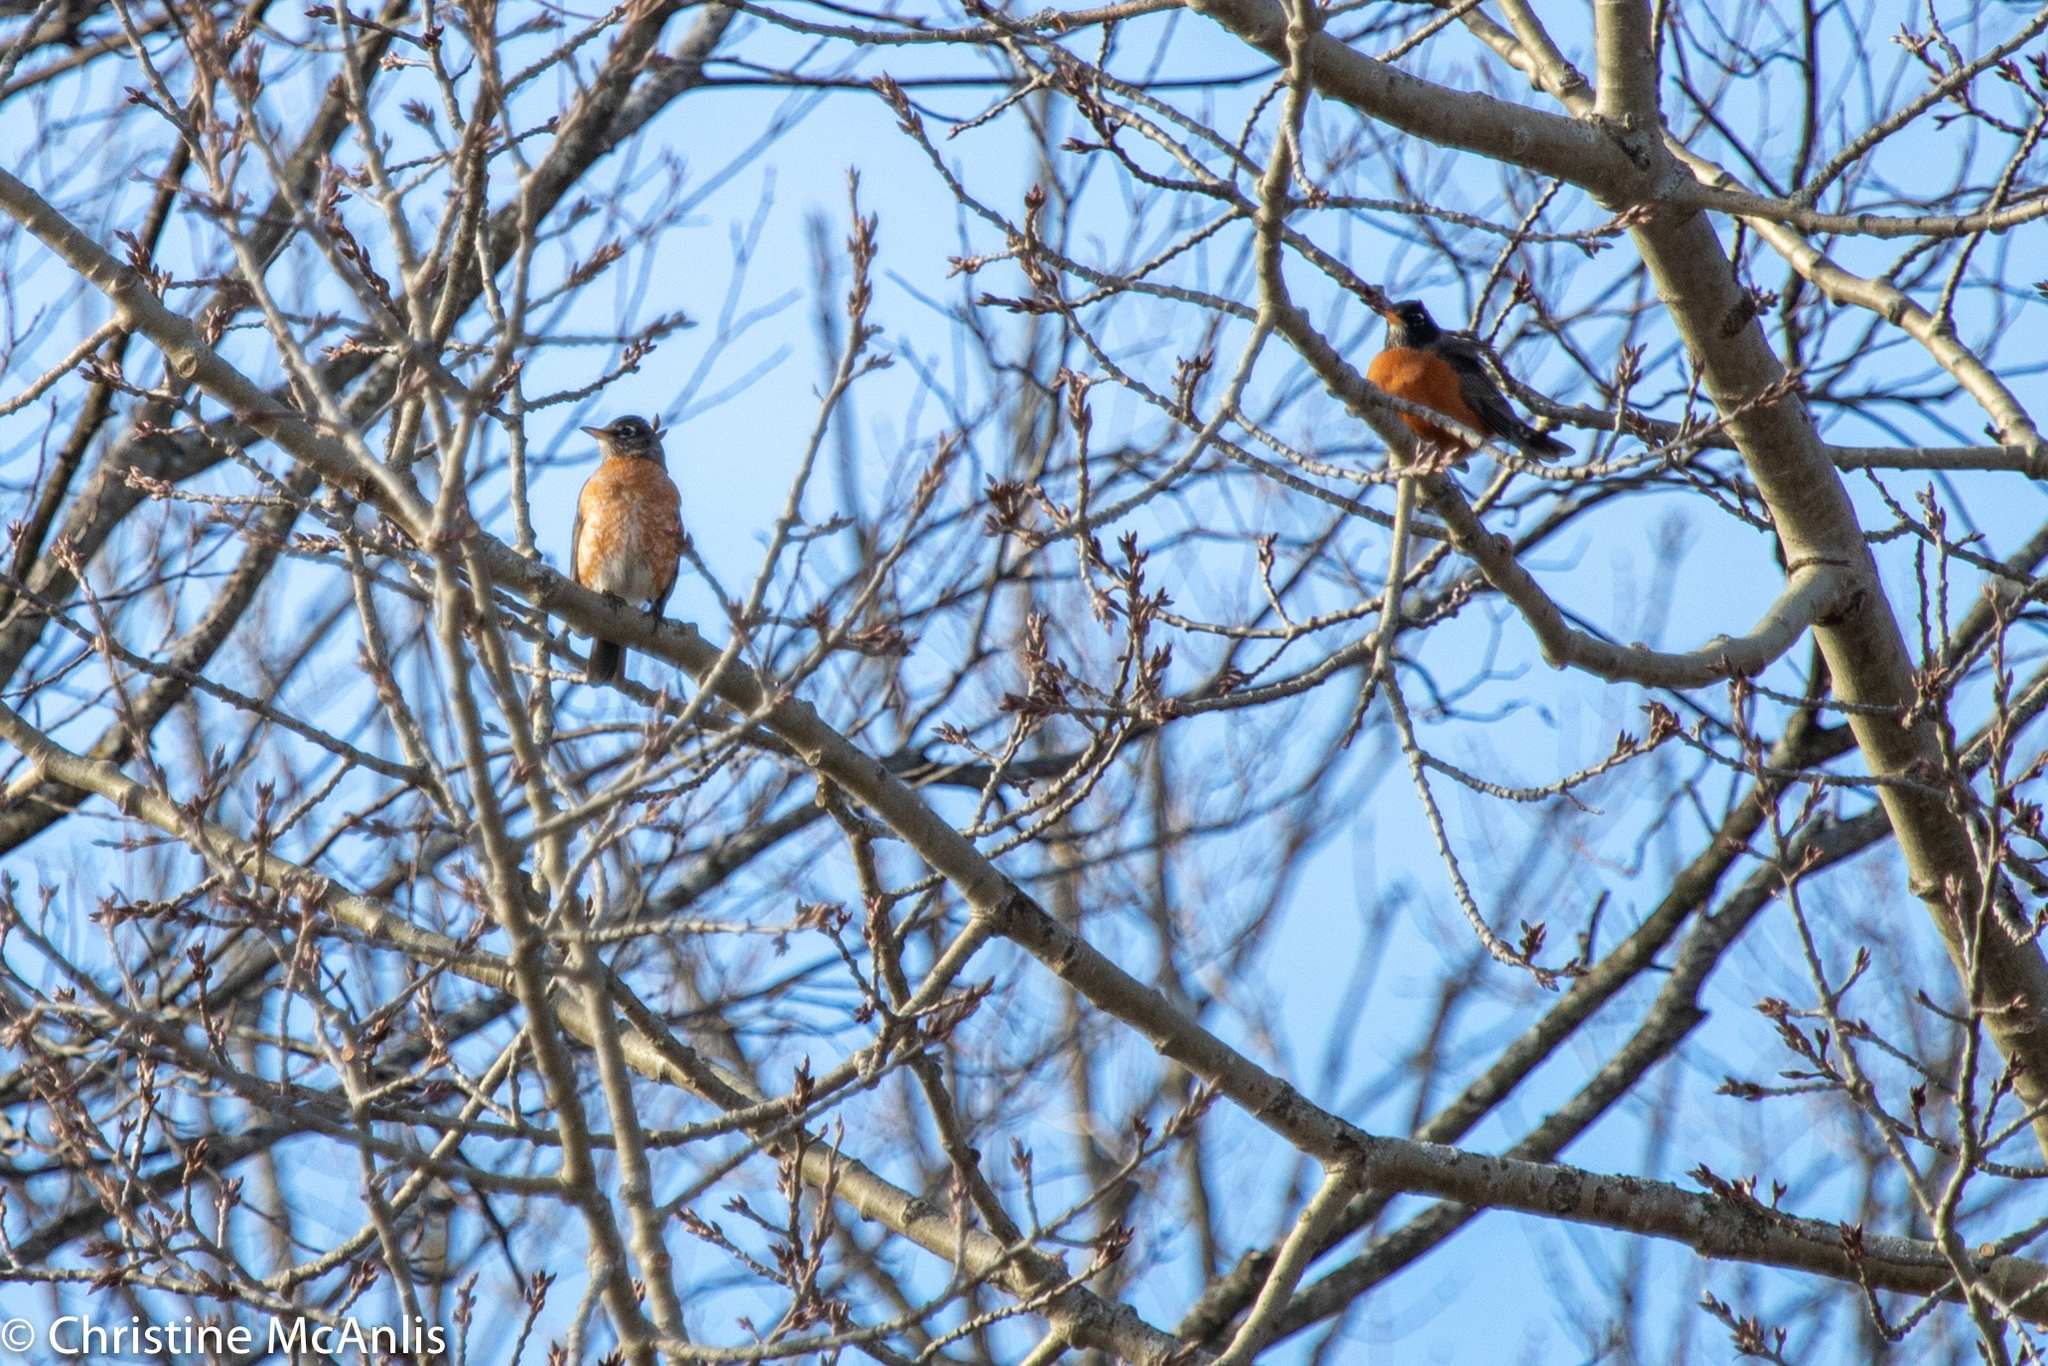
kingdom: Animalia
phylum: Chordata
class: Aves
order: Passeriformes
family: Turdidae
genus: Turdus
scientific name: Turdus migratorius
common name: American robin
